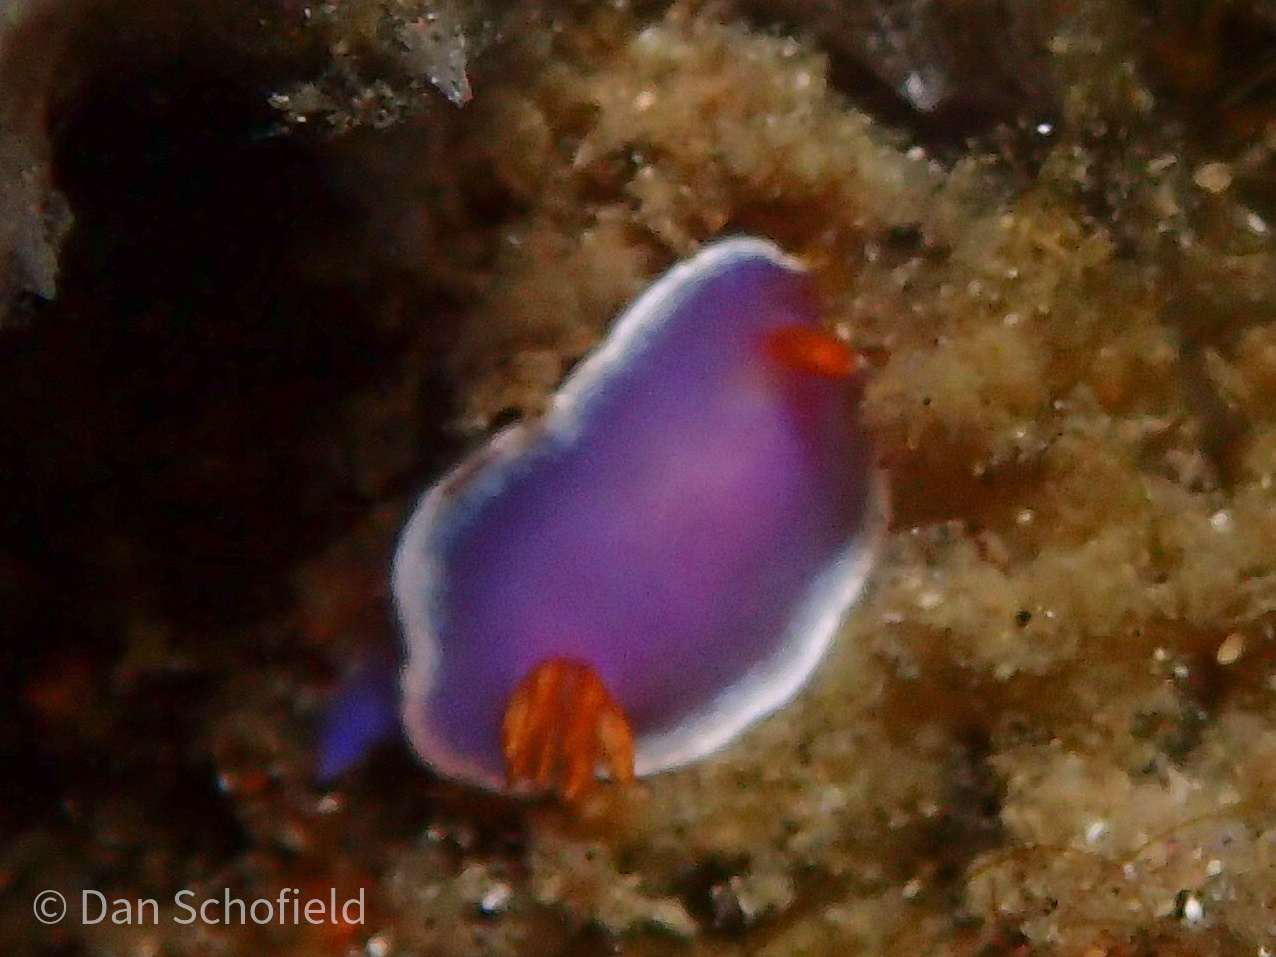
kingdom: Animalia
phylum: Mollusca
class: Gastropoda
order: Nudibranchia
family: Chromodorididae
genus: Hypselodoris
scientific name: Hypselodoris apolegma
